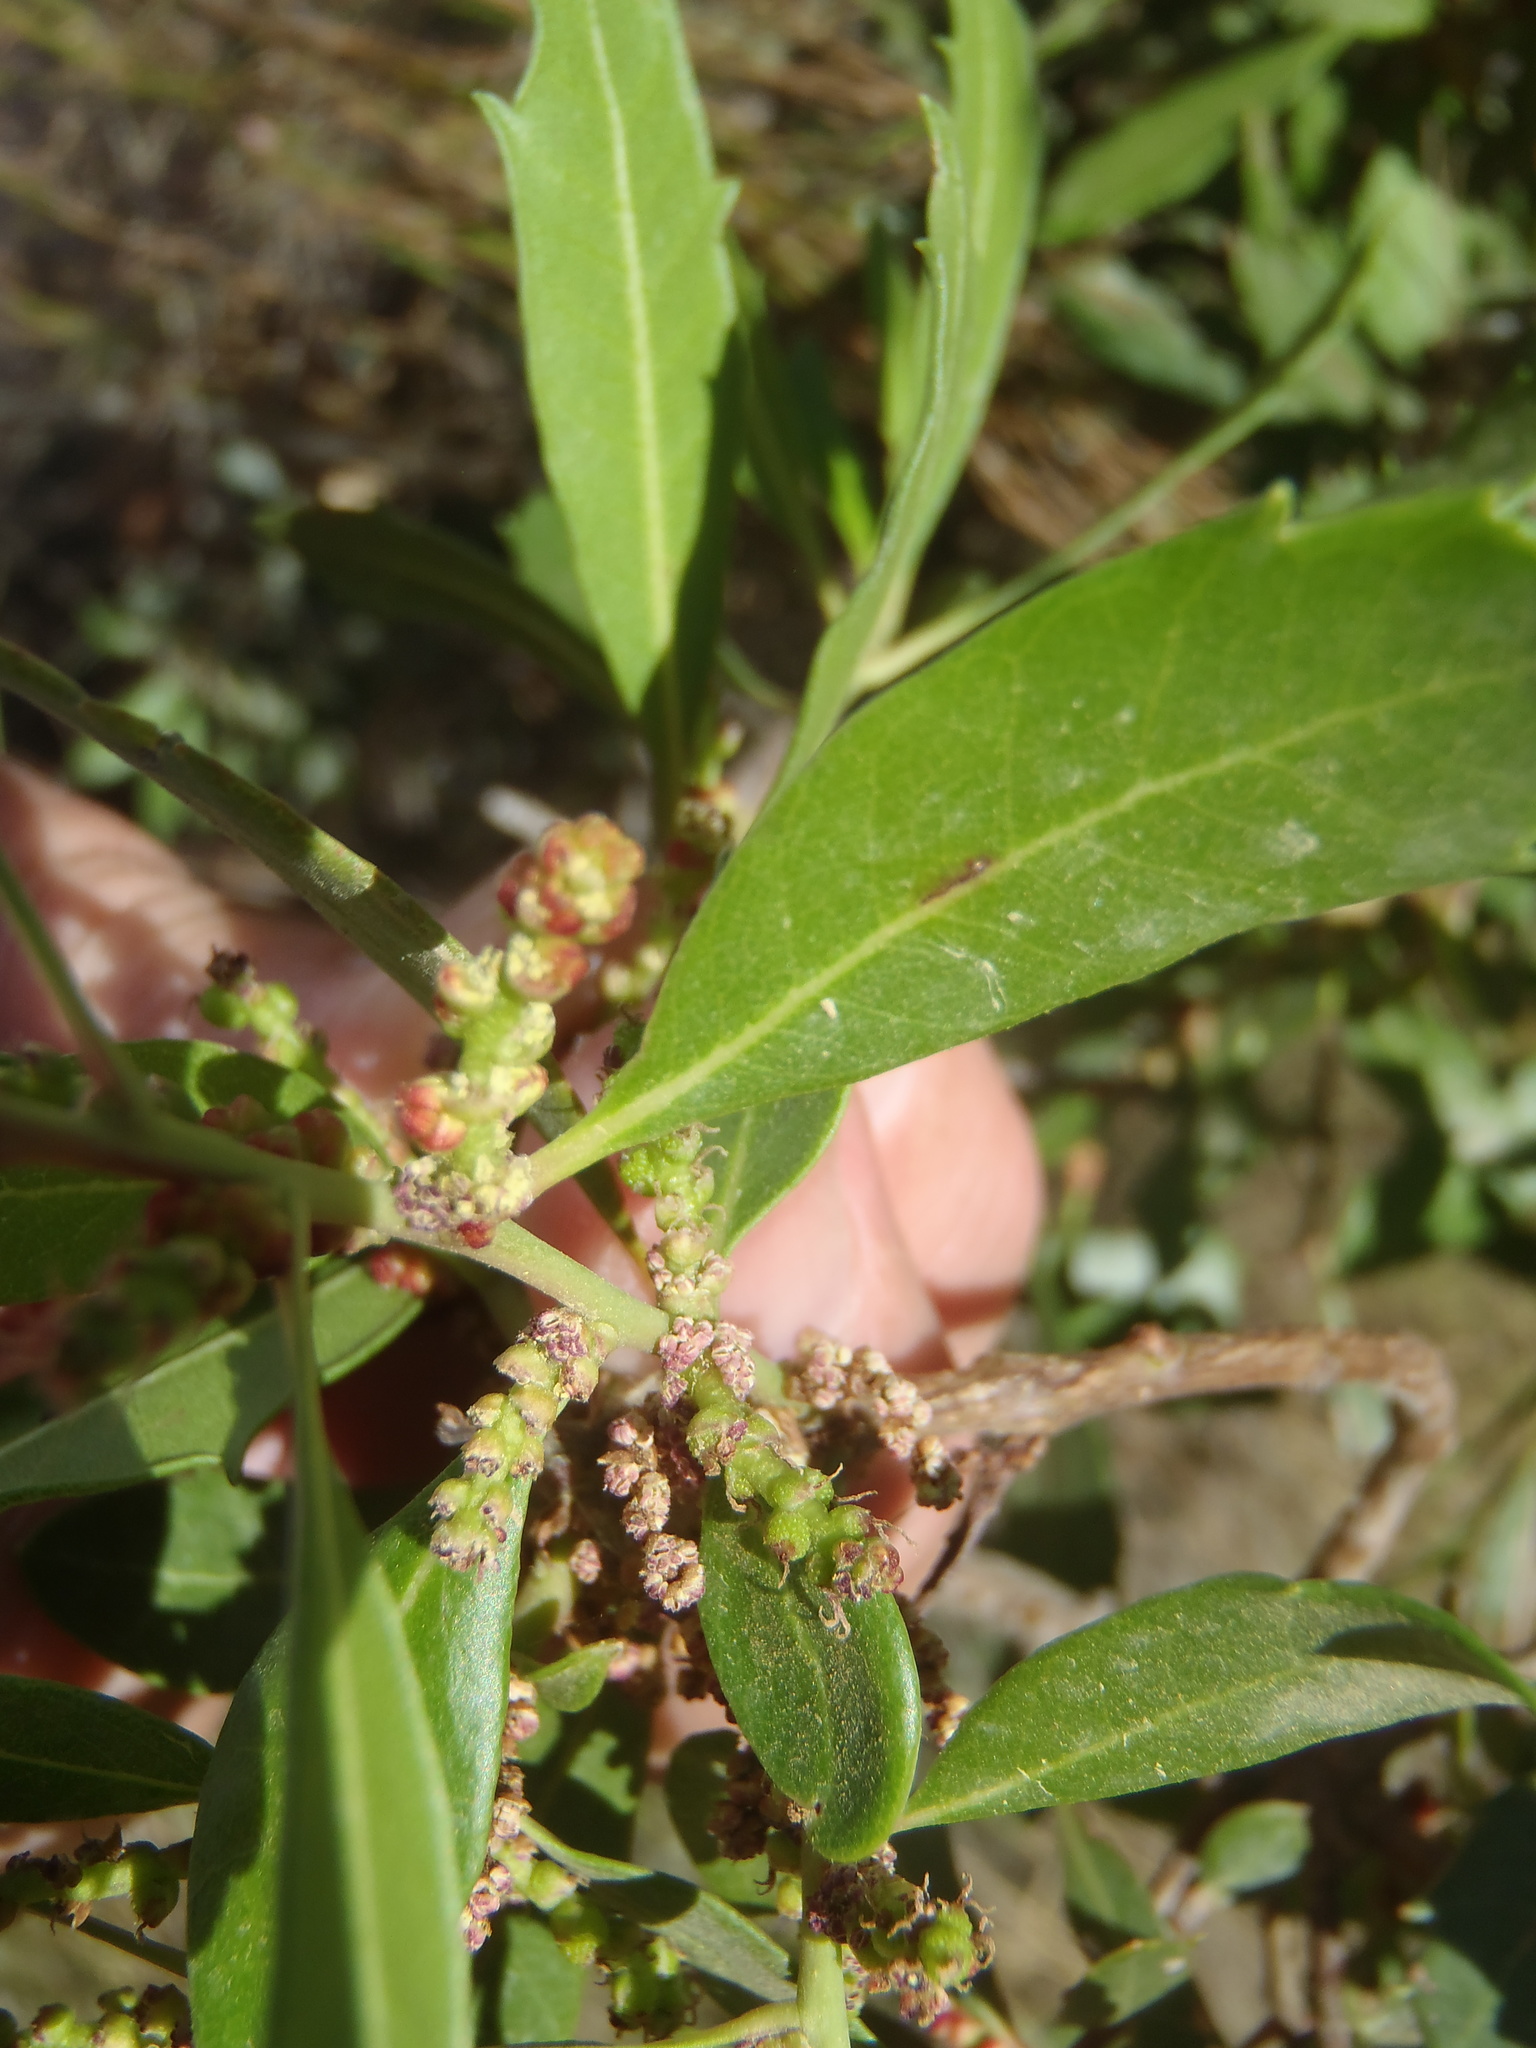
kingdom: Plantae
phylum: Tracheophyta
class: Magnoliopsida
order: Fagales
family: Myricaceae
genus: Morella
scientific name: Morella serrata
